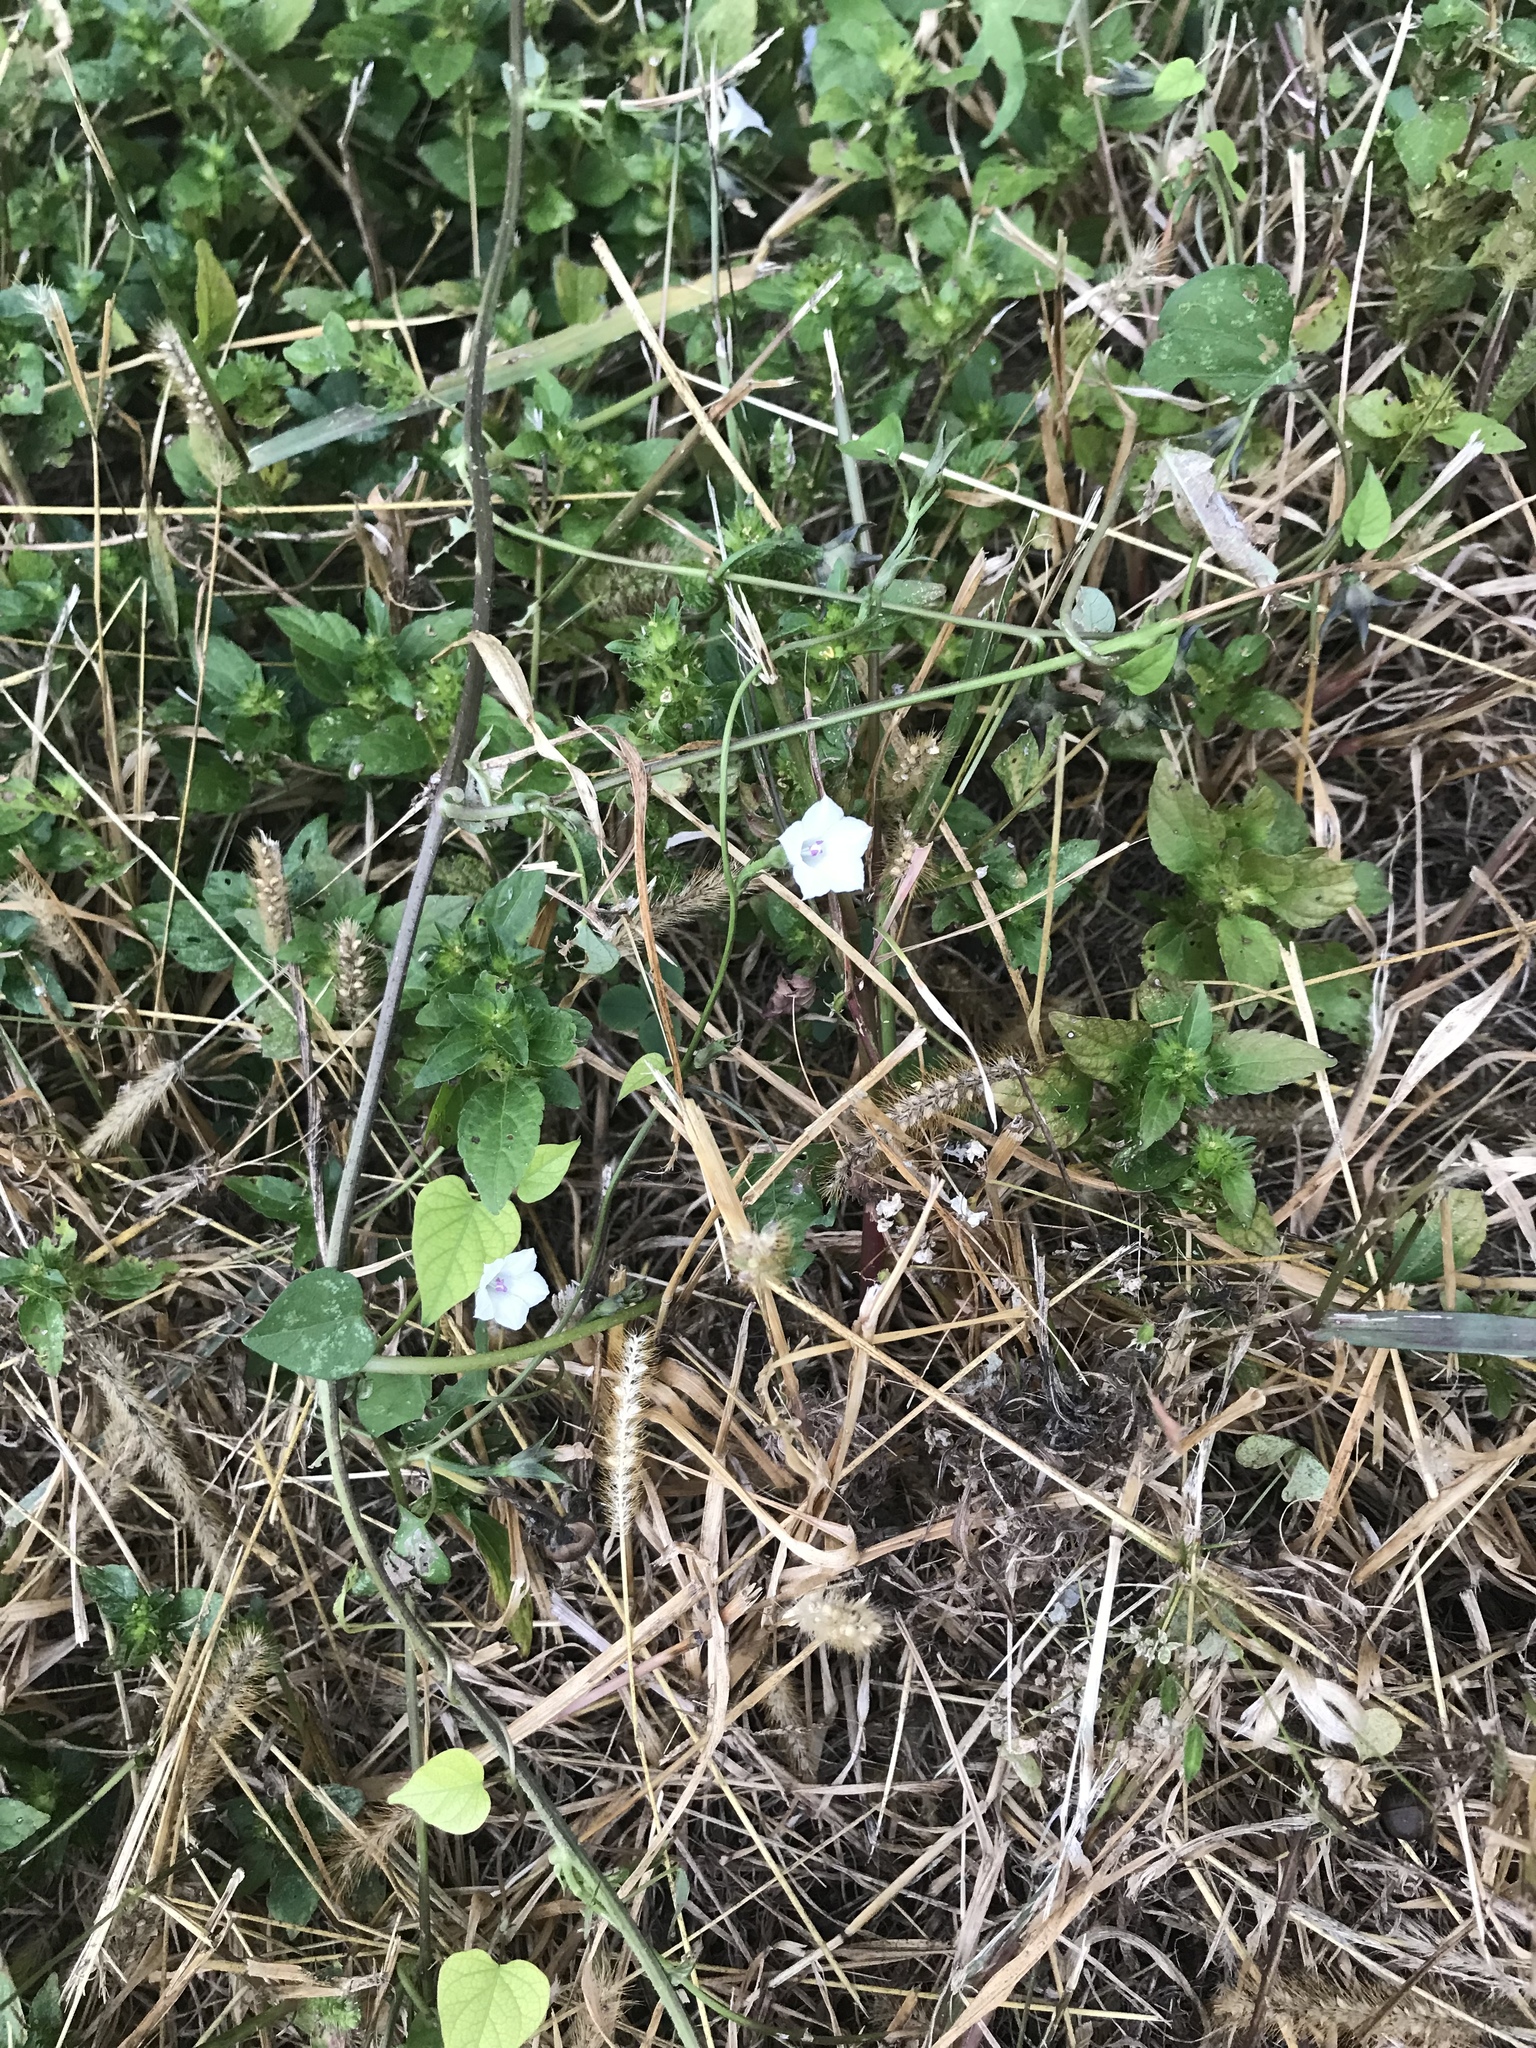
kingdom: Plantae
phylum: Tracheophyta
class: Magnoliopsida
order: Solanales
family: Convolvulaceae
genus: Ipomoea
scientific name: Ipomoea lacunosa
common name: White morning-glory
